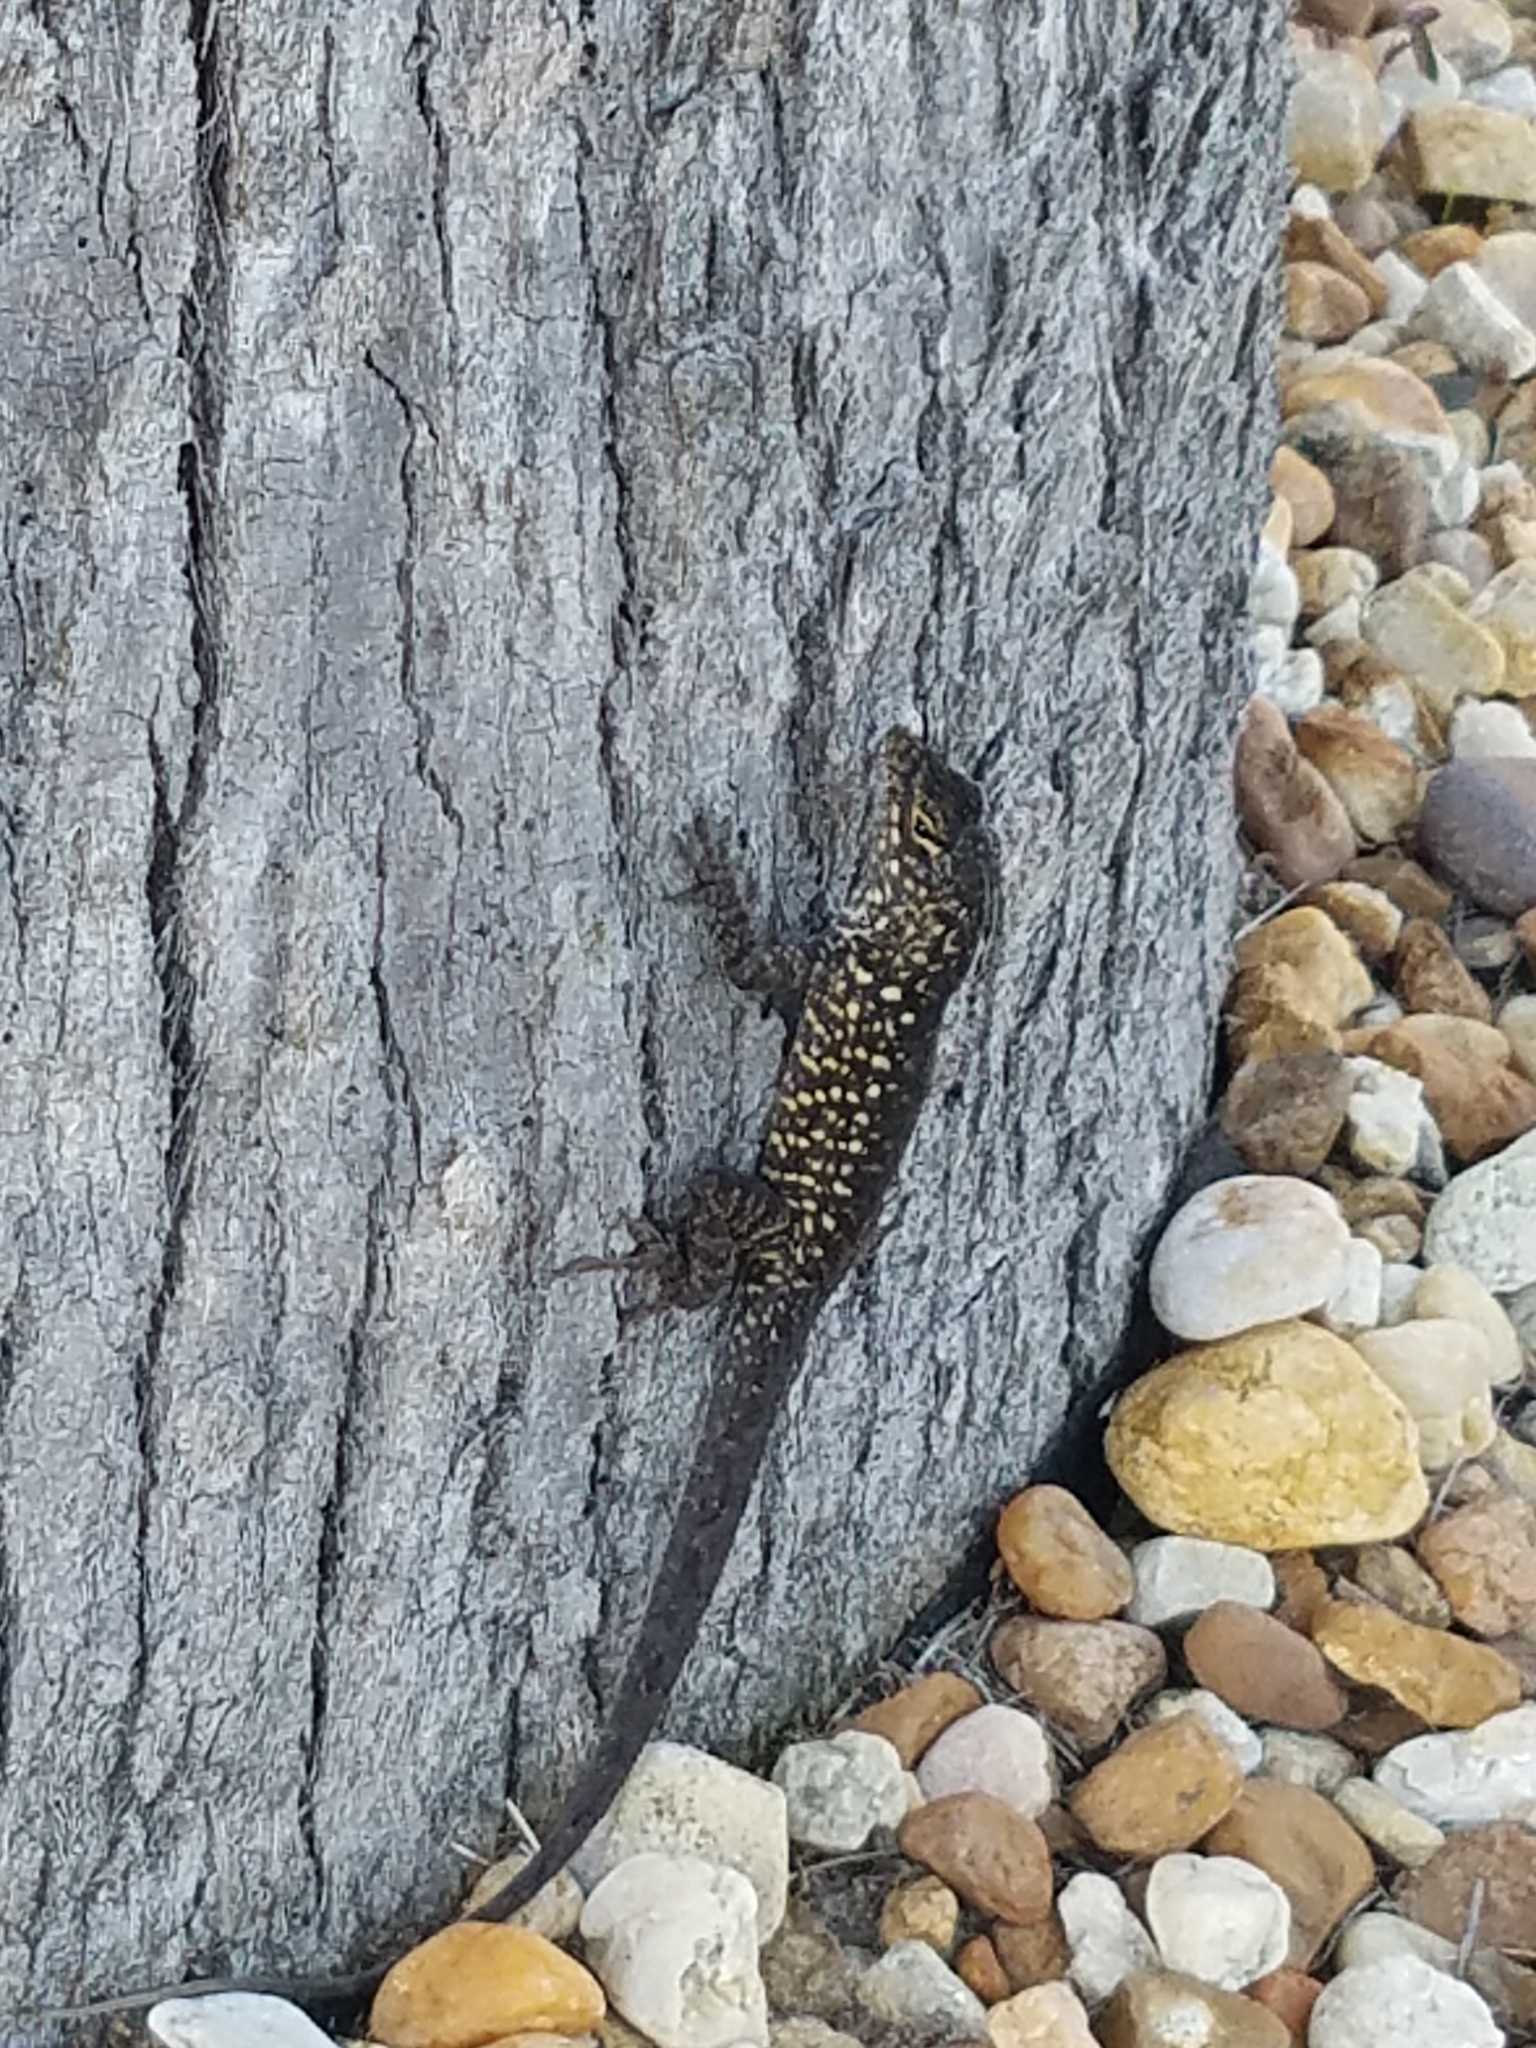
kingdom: Animalia
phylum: Chordata
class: Squamata
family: Dactyloidae
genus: Anolis
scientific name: Anolis sagrei
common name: Brown anole
